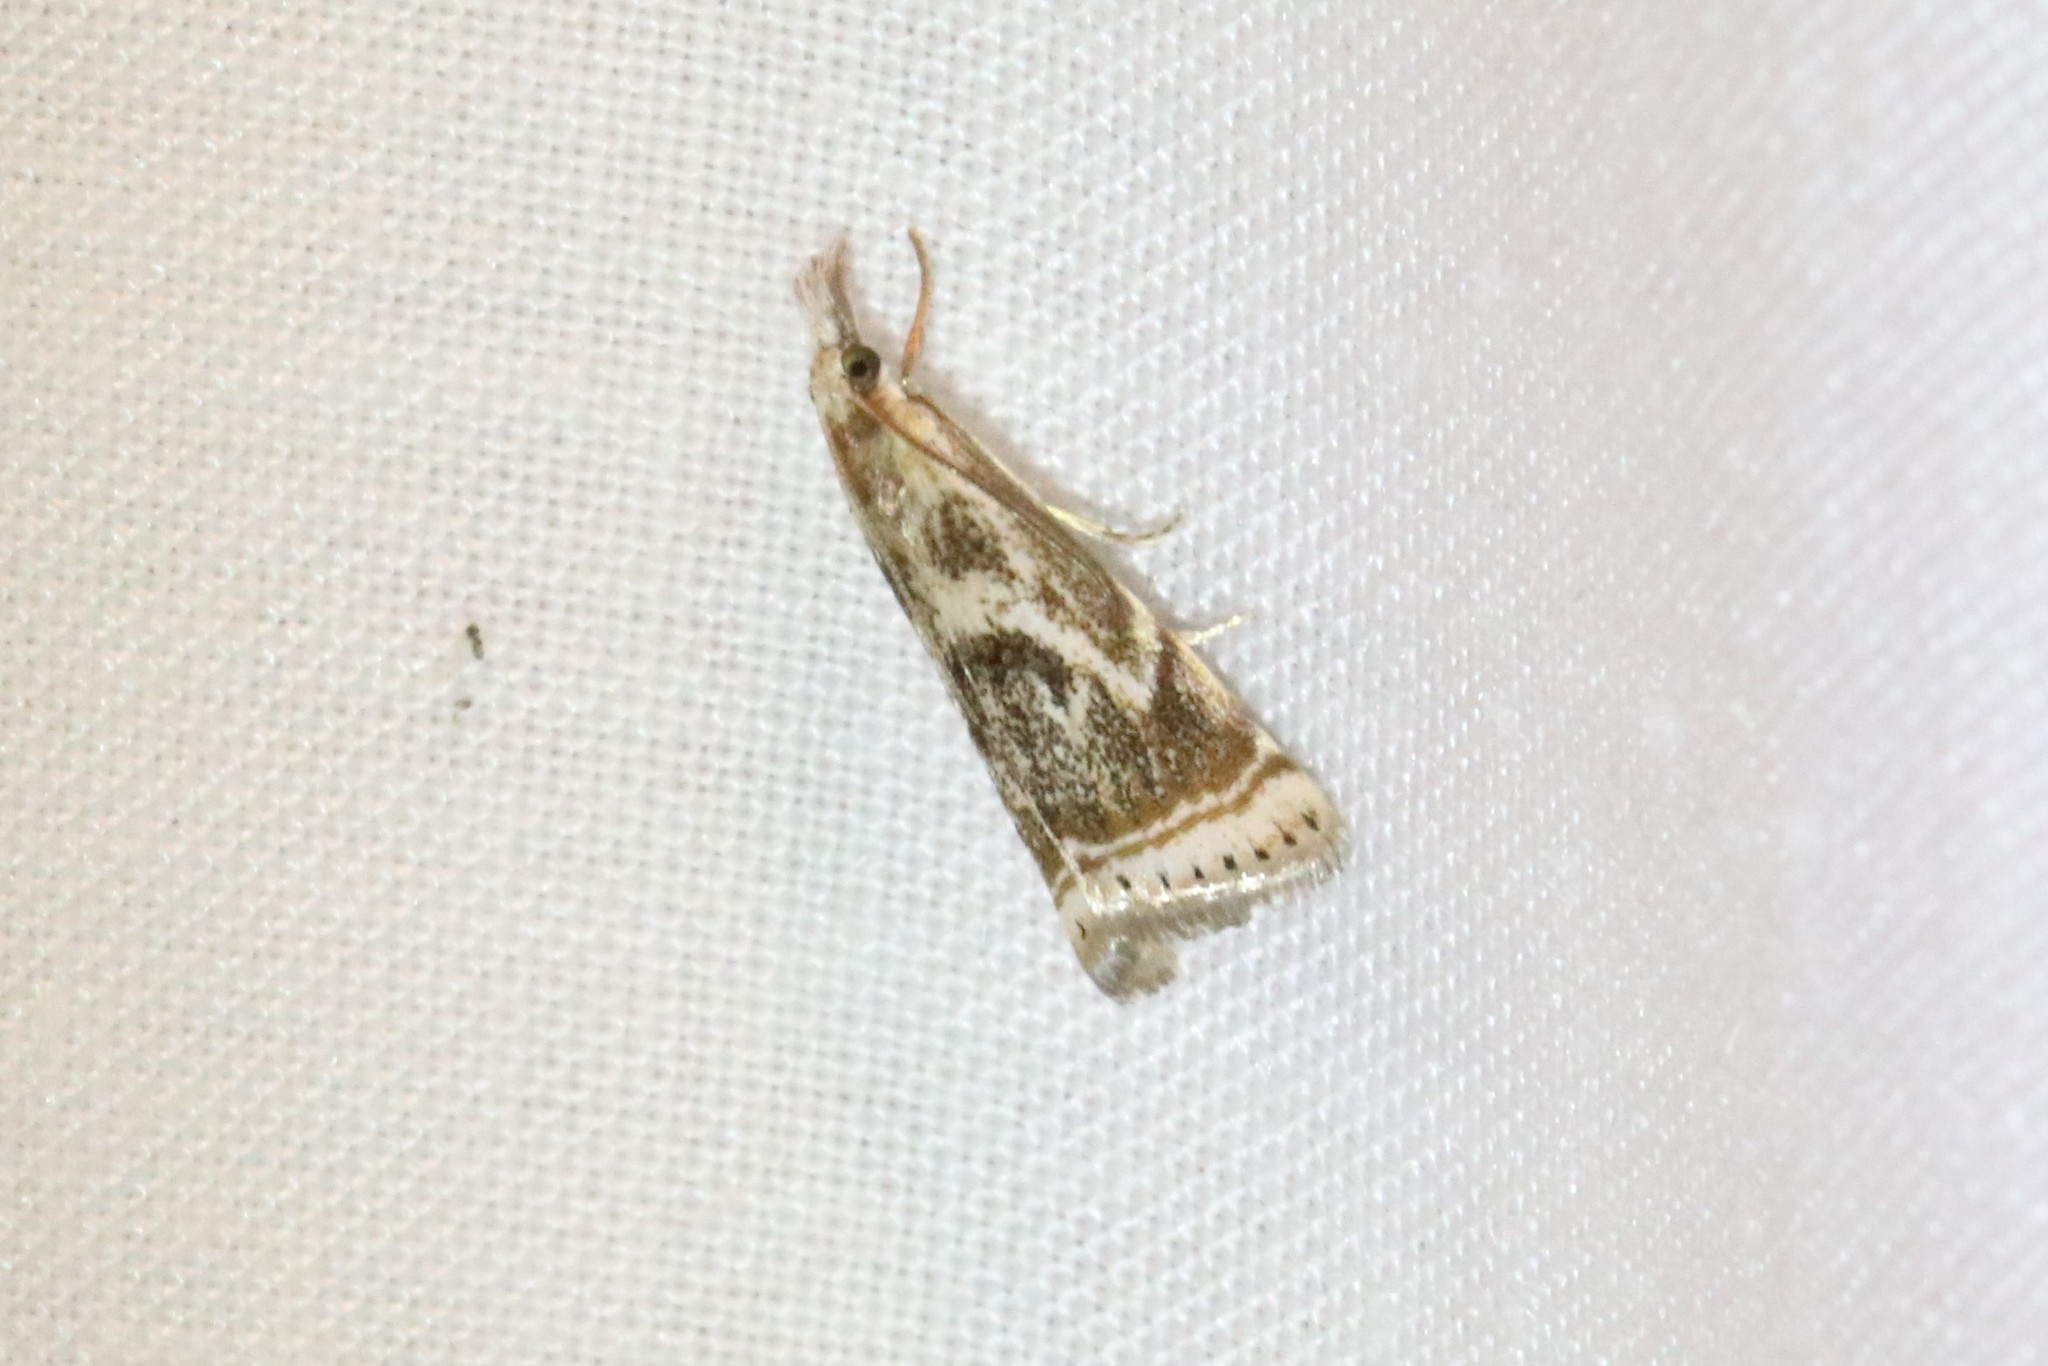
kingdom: Animalia
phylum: Arthropoda
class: Insecta
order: Lepidoptera
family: Crambidae
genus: Microcrambus
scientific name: Microcrambus elegans
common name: Elegant grass-veneer
